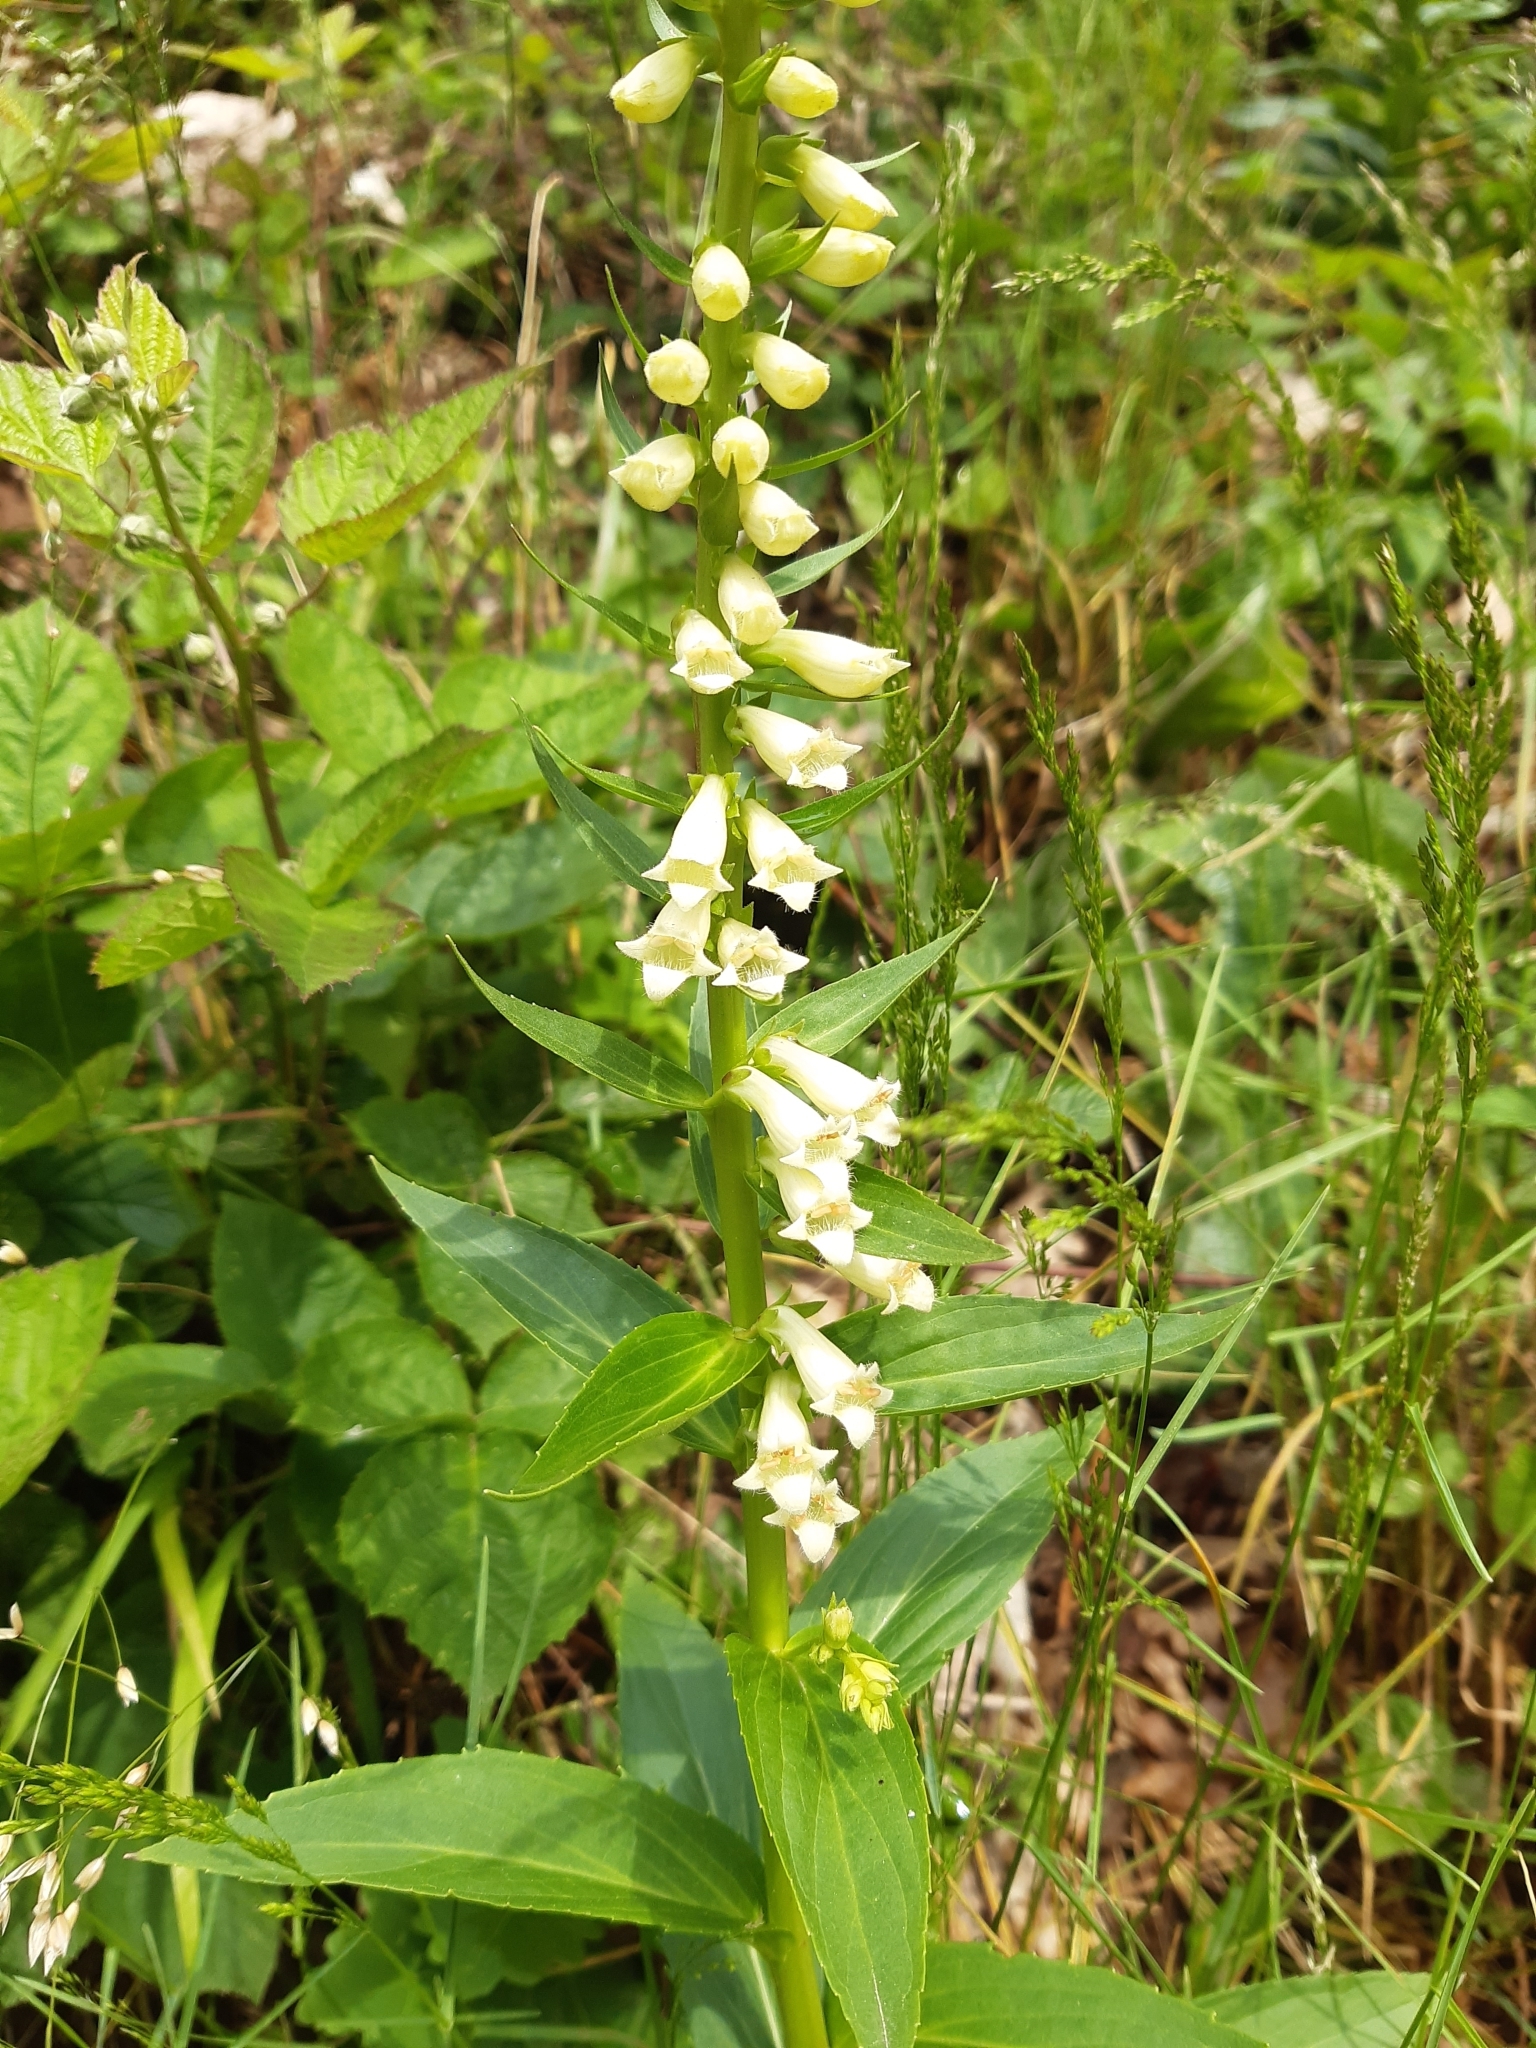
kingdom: Plantae
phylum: Tracheophyta
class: Magnoliopsida
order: Lamiales
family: Plantaginaceae
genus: Digitalis
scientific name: Digitalis lutea
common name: Straw foxglove
